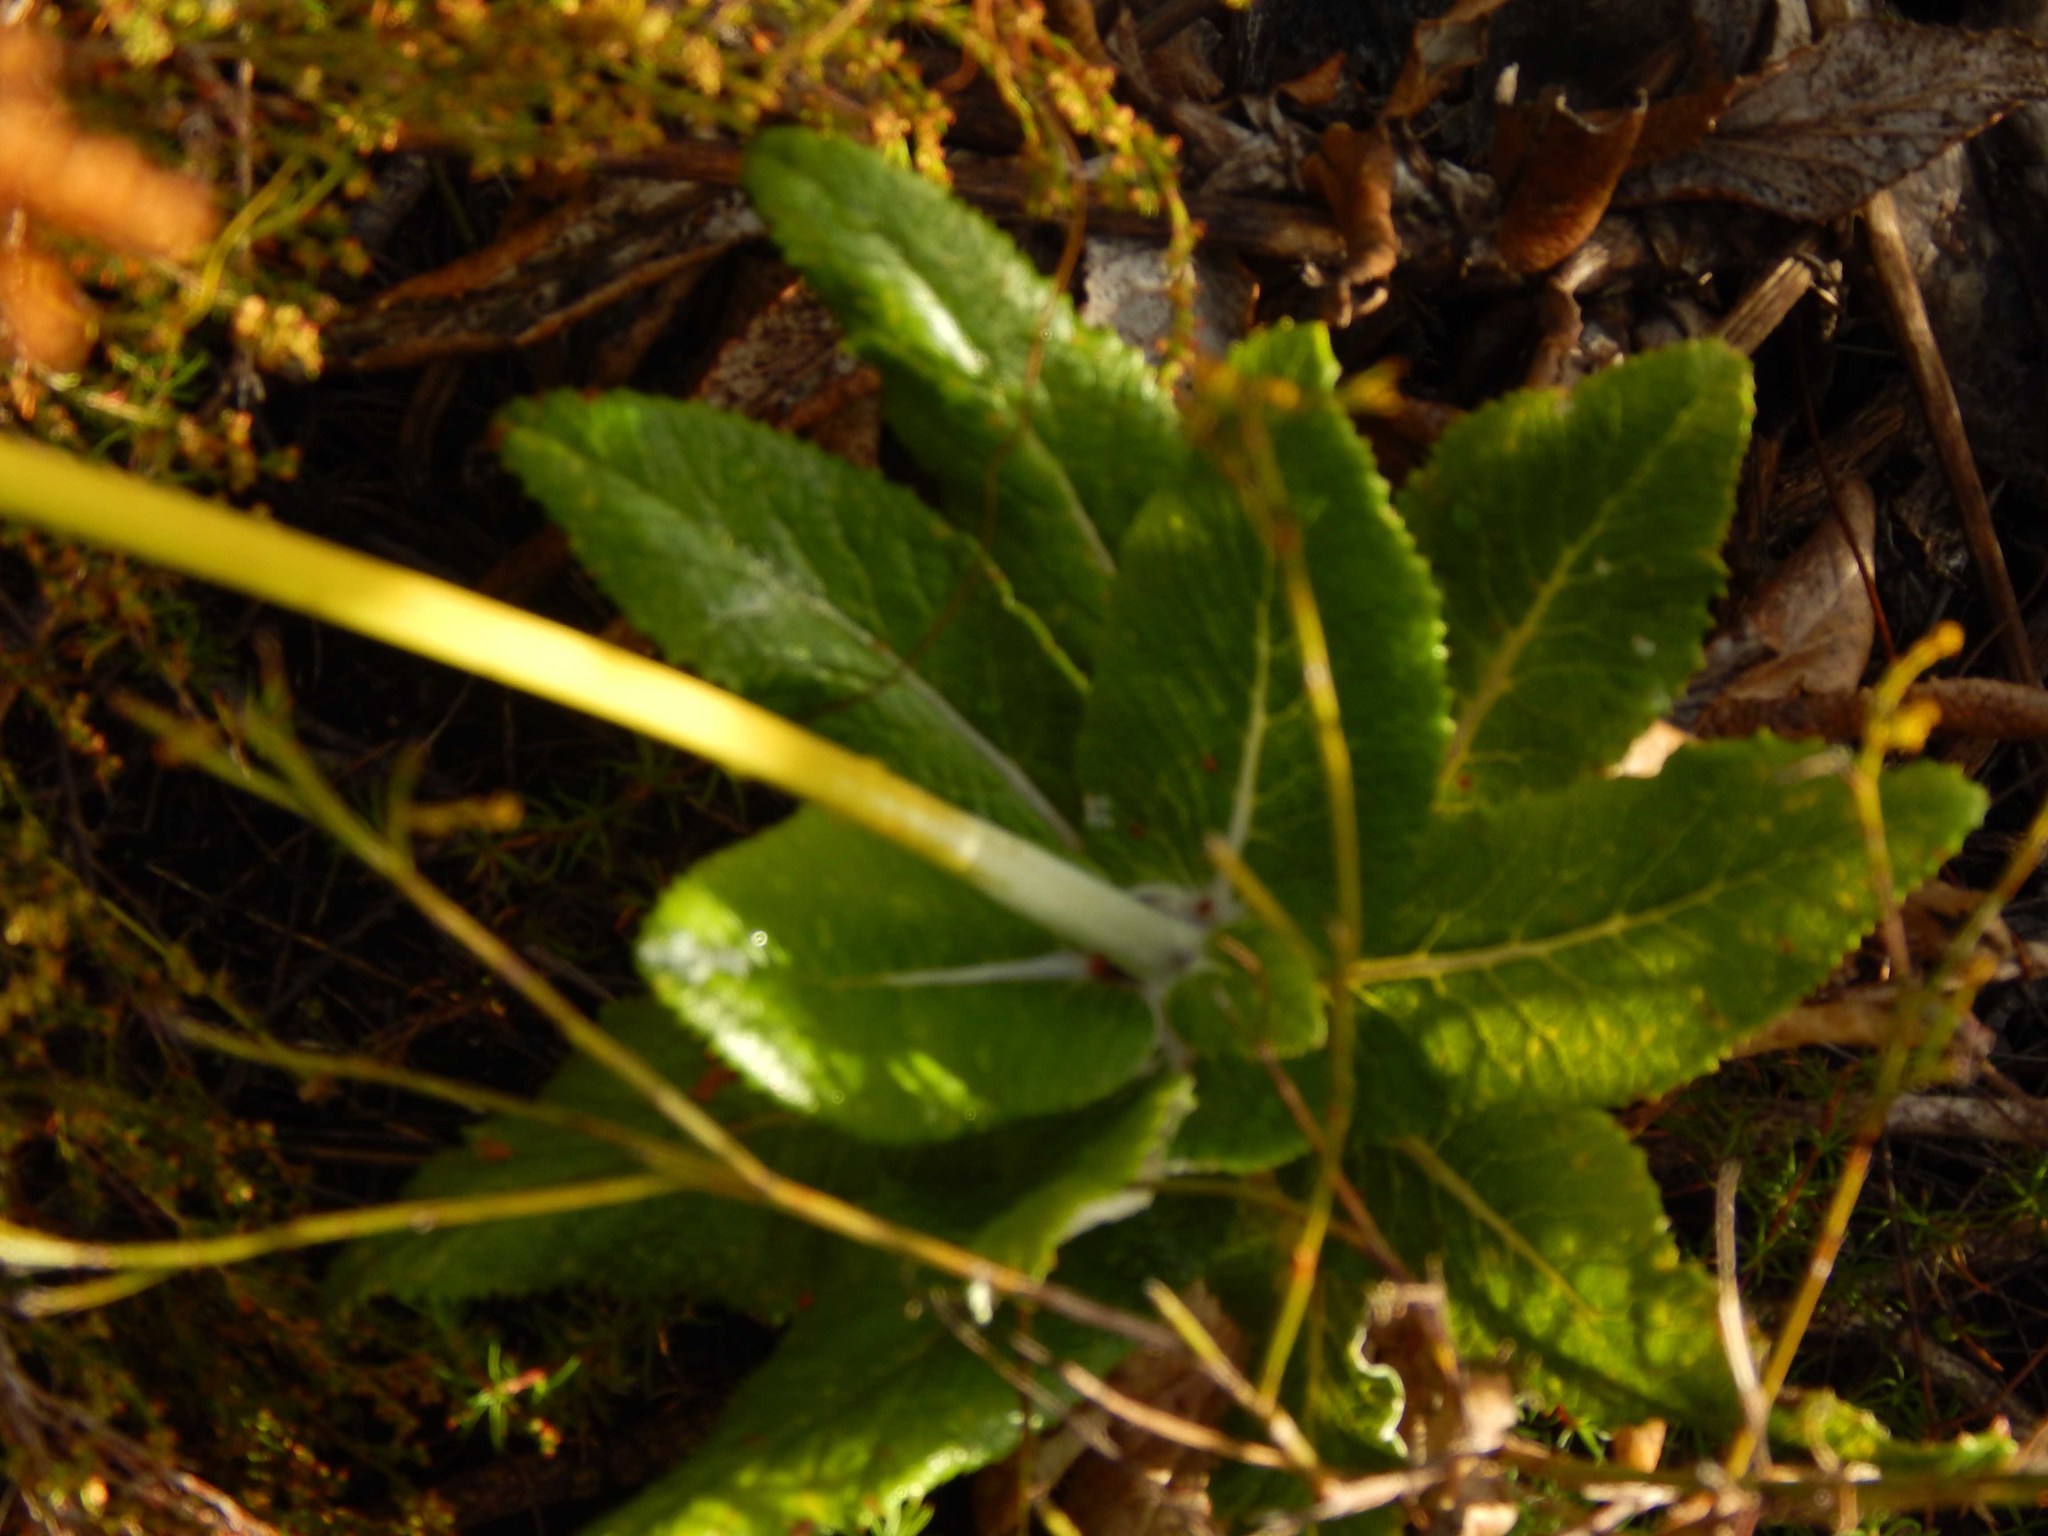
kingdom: Plantae
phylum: Tracheophyta
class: Magnoliopsida
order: Apiales
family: Apiaceae
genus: Hermas
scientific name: Hermas villosa
